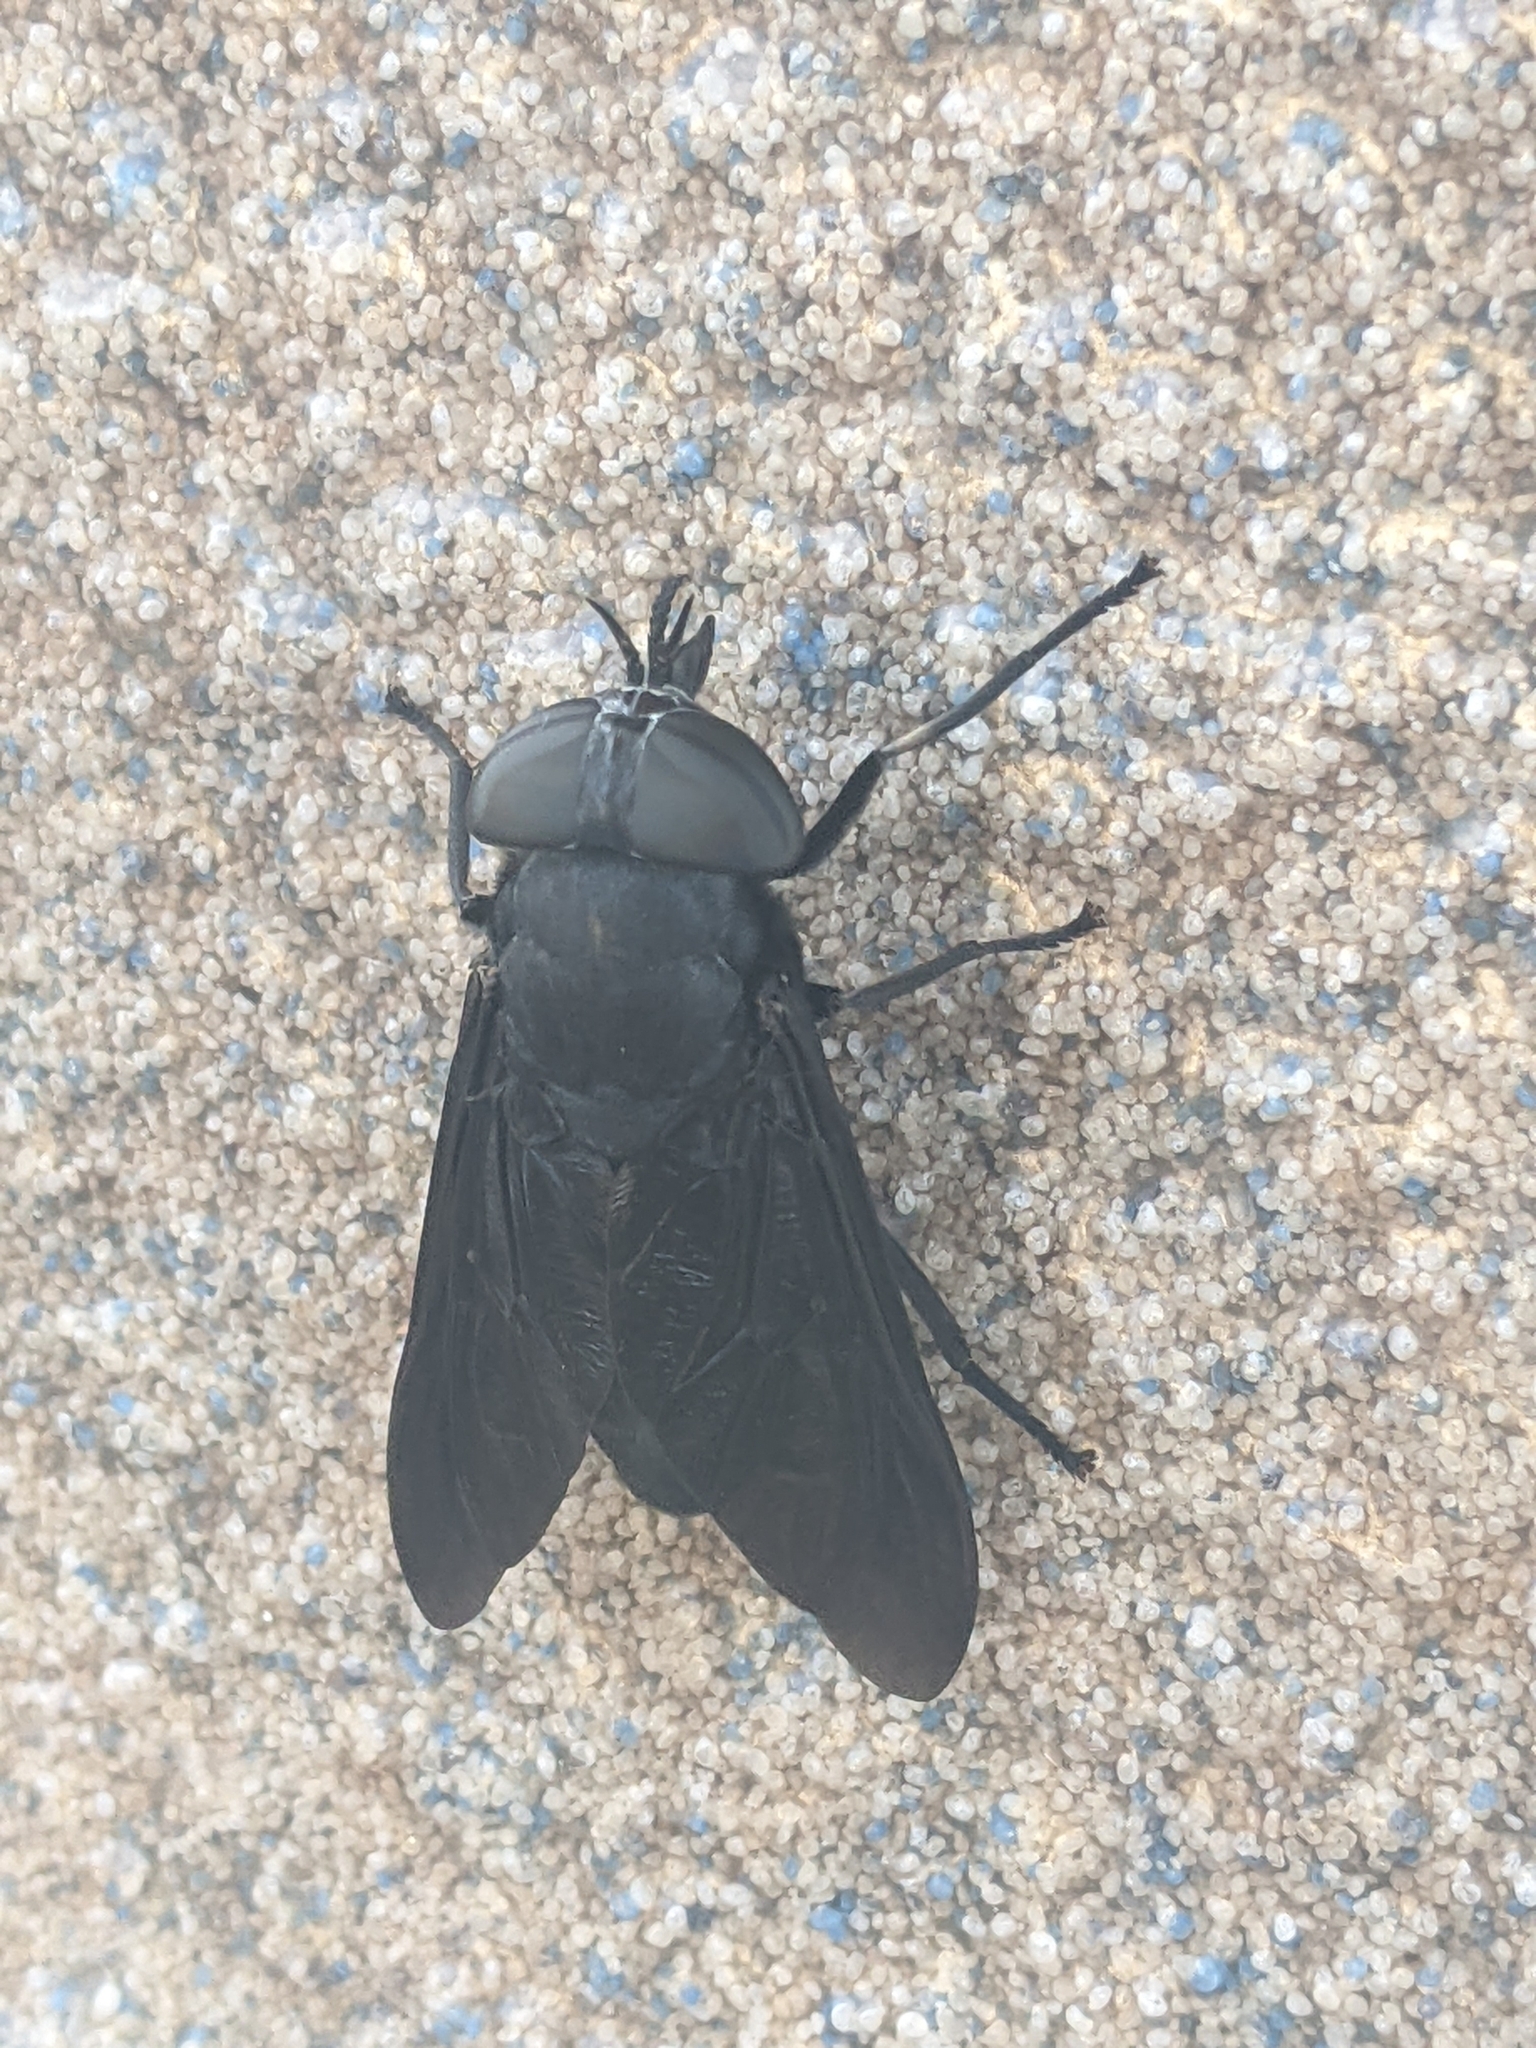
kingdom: Animalia
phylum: Arthropoda
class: Insecta
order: Diptera
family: Tabanidae
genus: Tabanus
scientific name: Tabanus atratus
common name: Black horse fly
